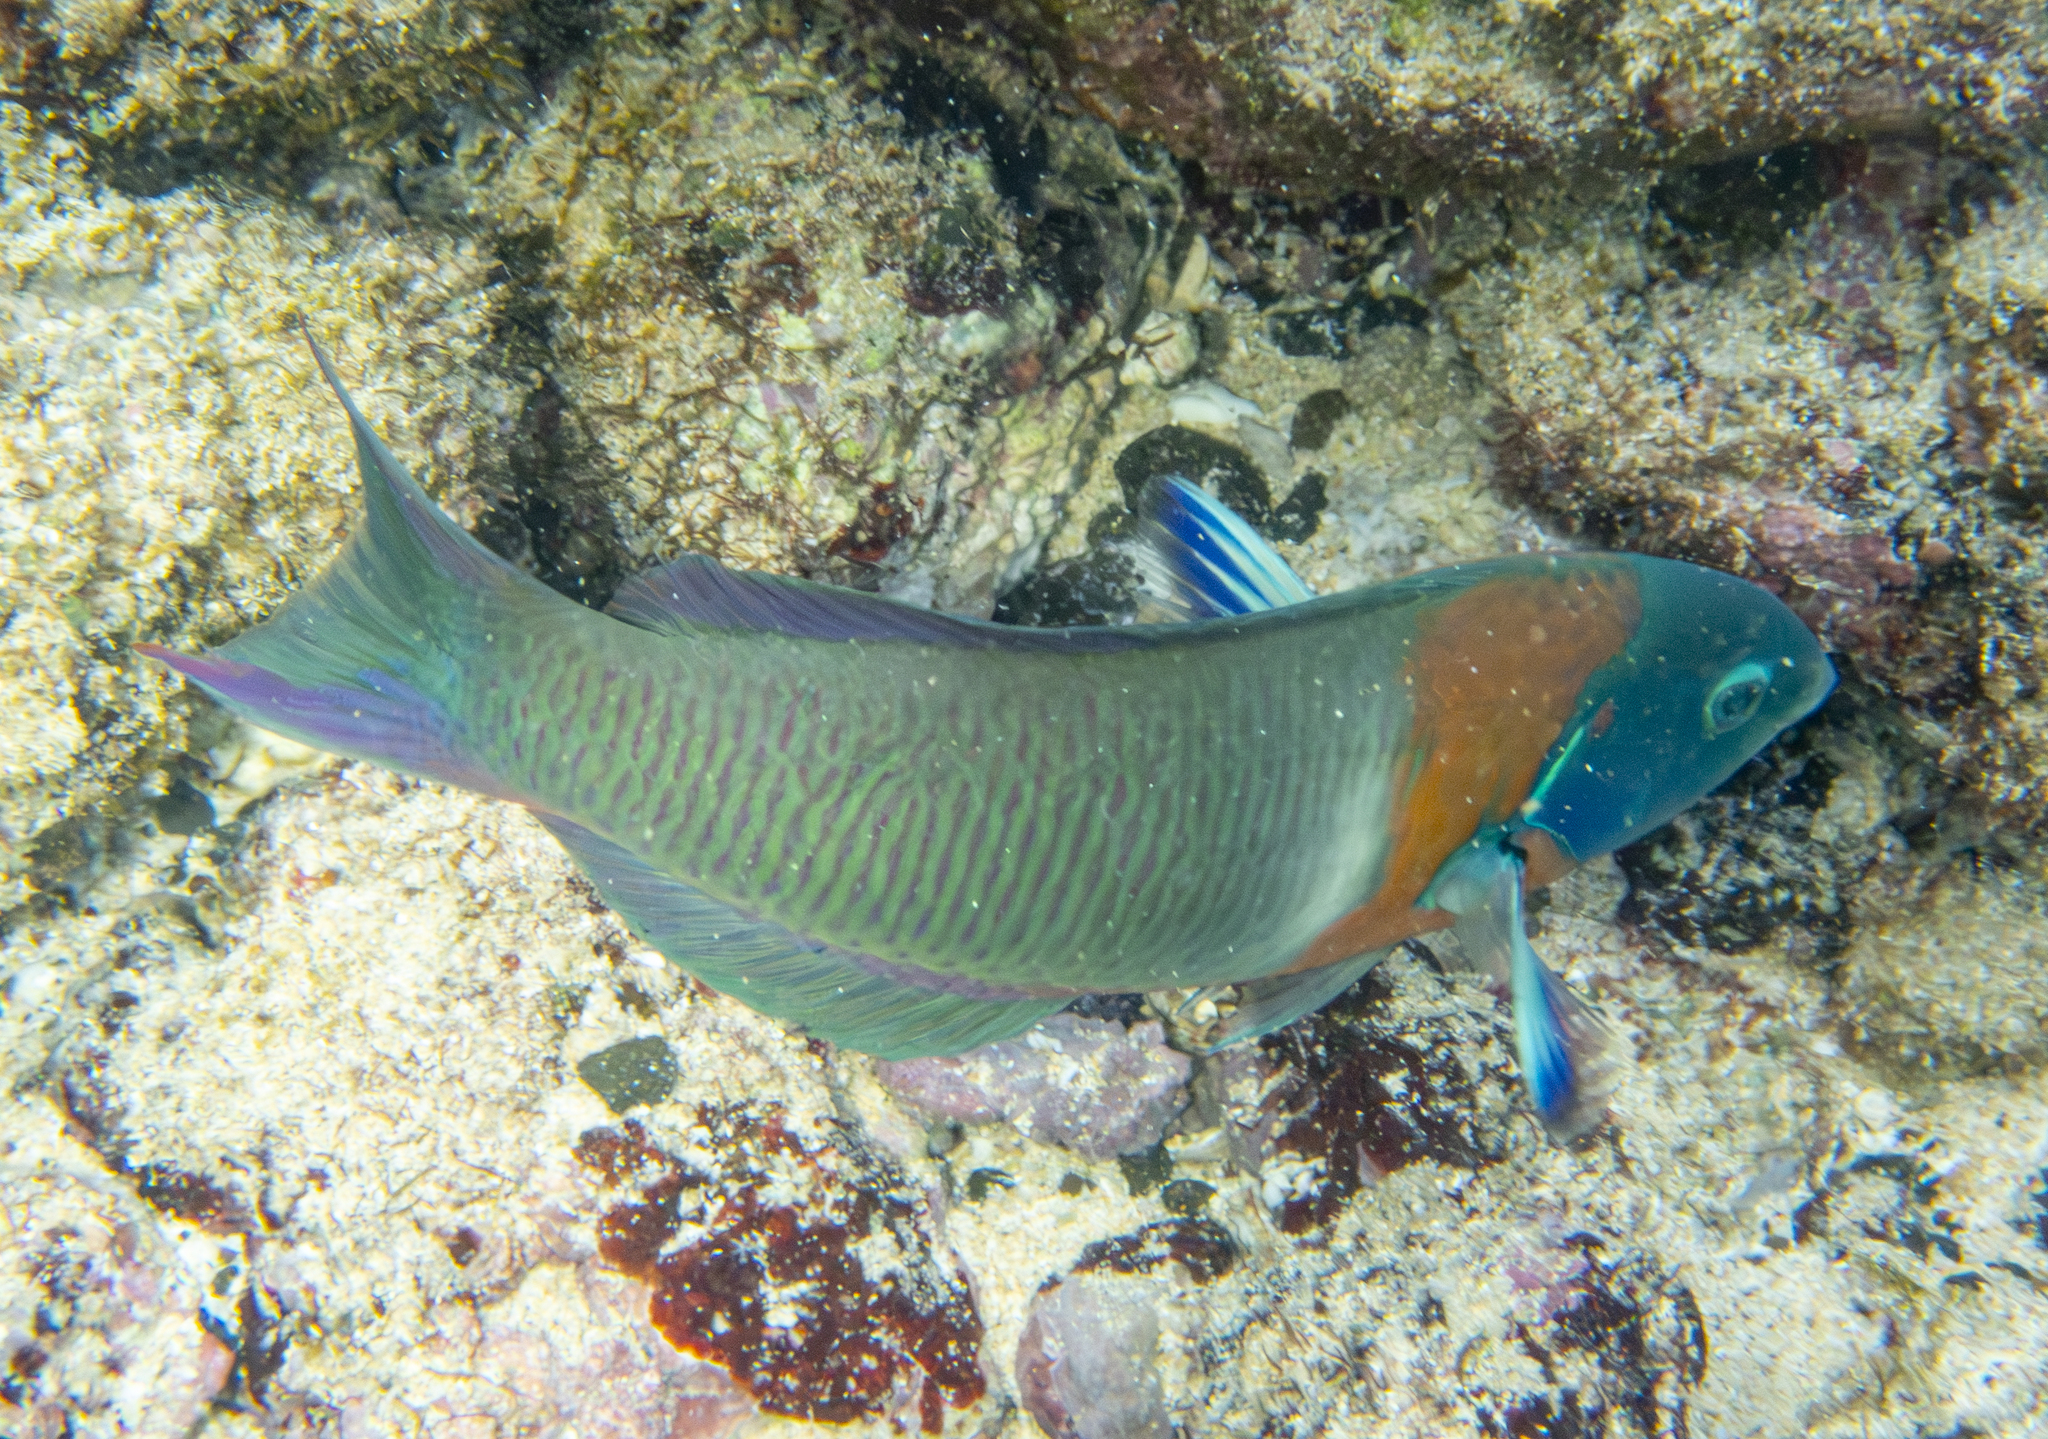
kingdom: Animalia
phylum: Chordata
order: Perciformes
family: Labridae
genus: Thalassoma
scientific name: Thalassoma duperrey
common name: Saddle wrasse
